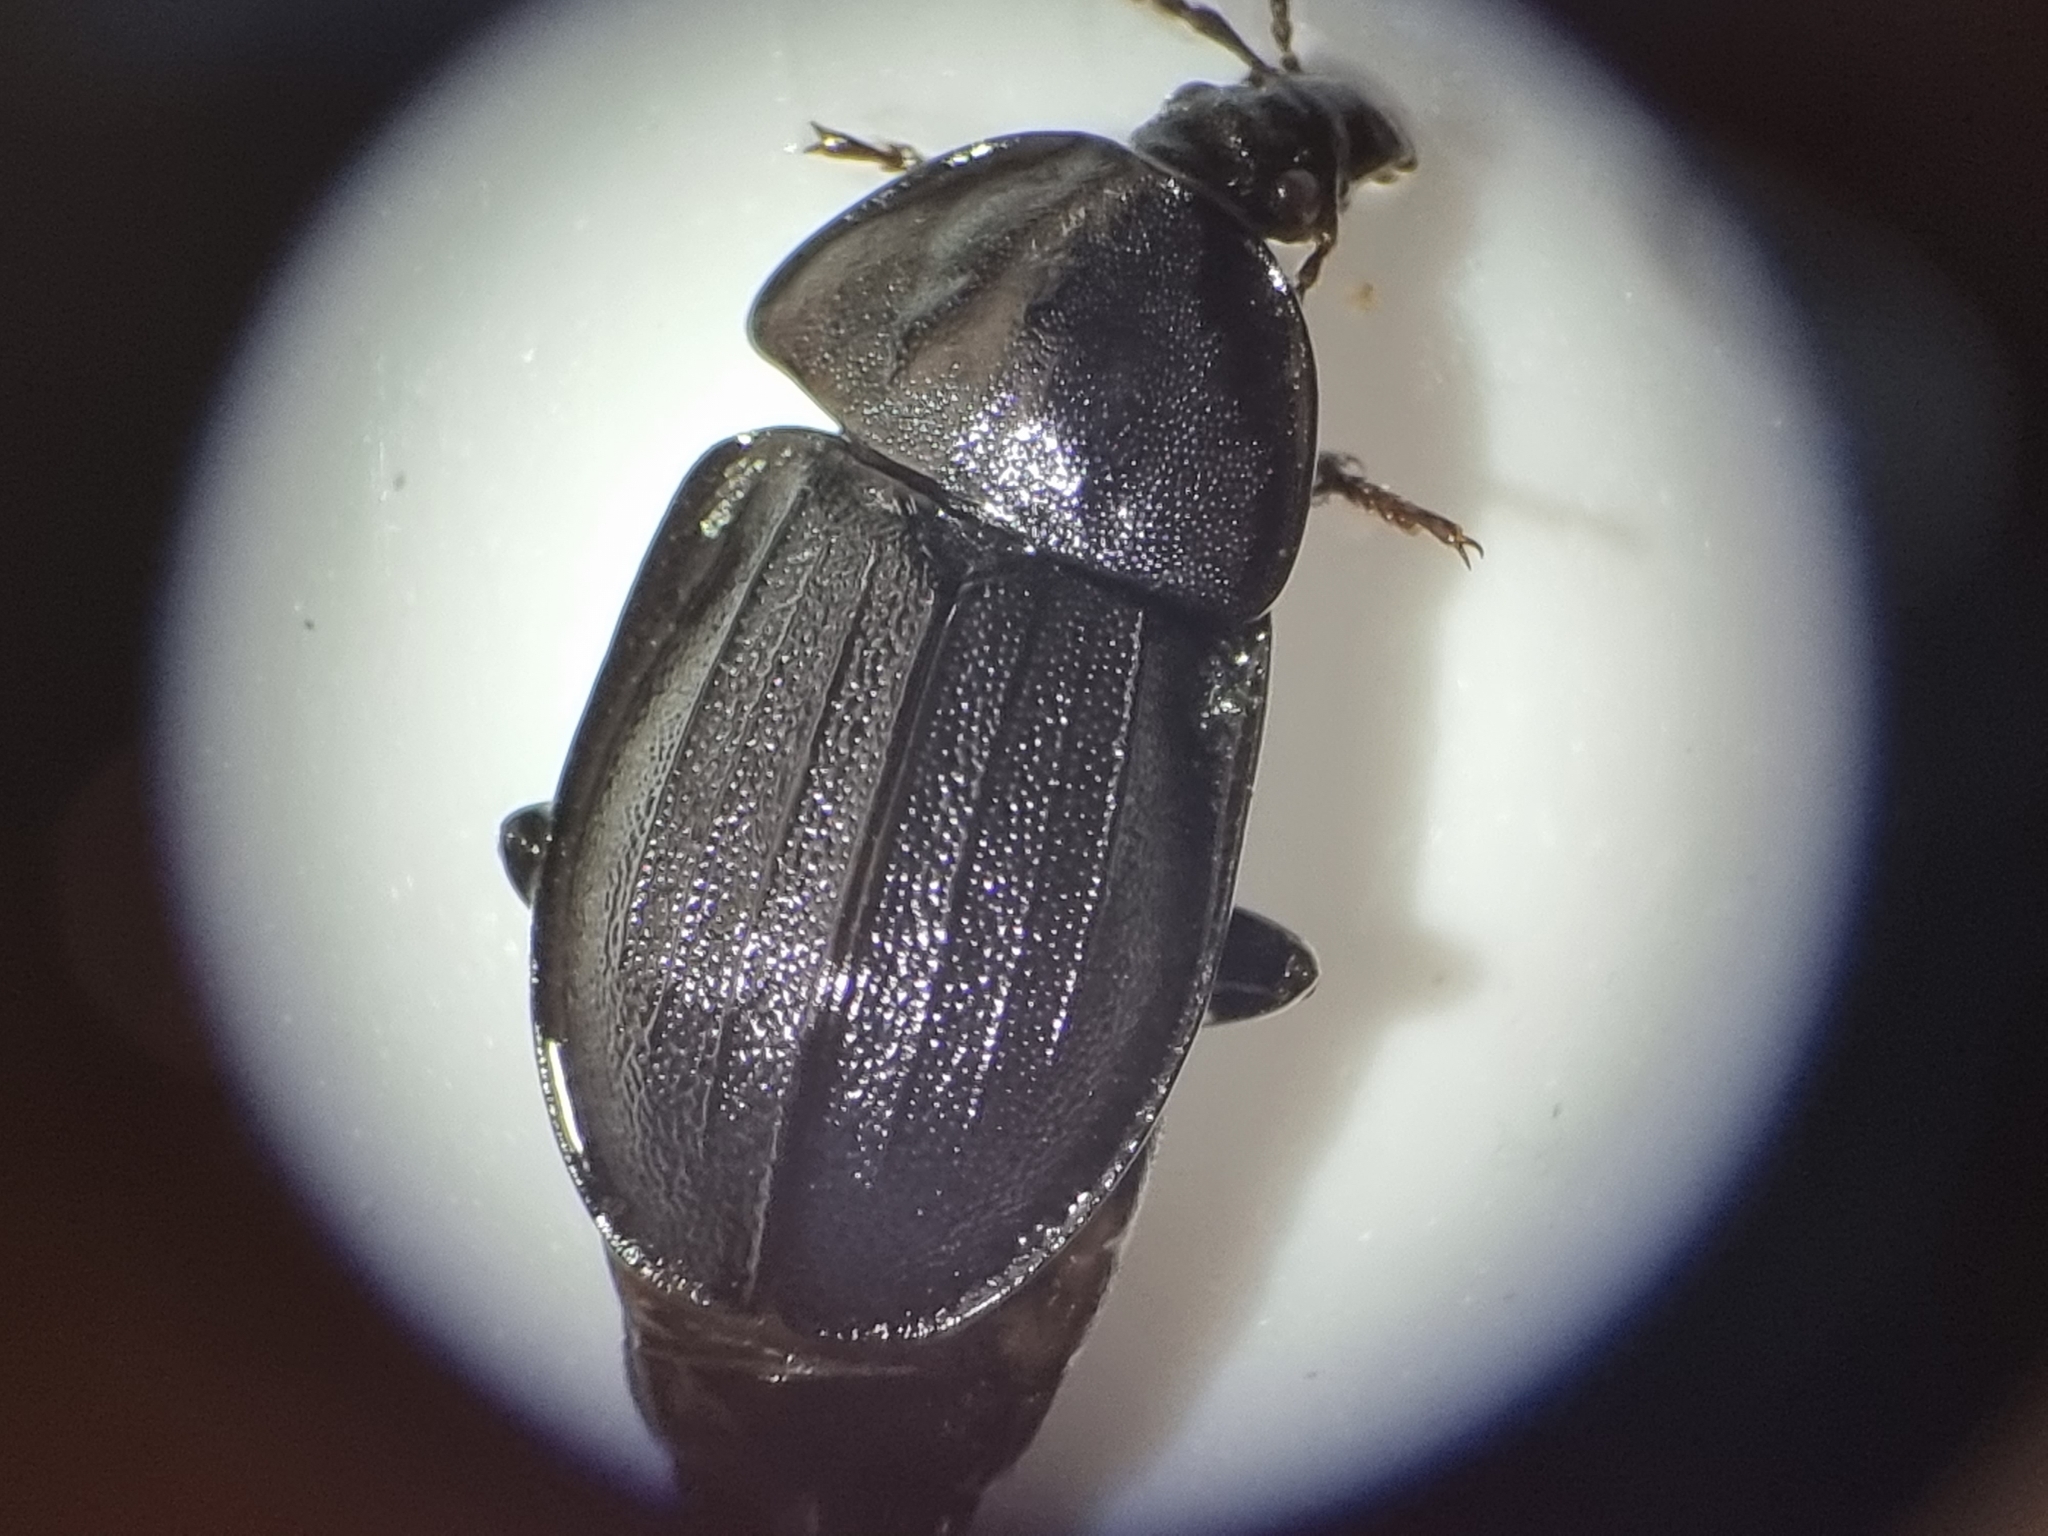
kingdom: Animalia
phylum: Arthropoda
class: Insecta
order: Coleoptera
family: Staphylinidae
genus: Silpha
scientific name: Silpha atrata
